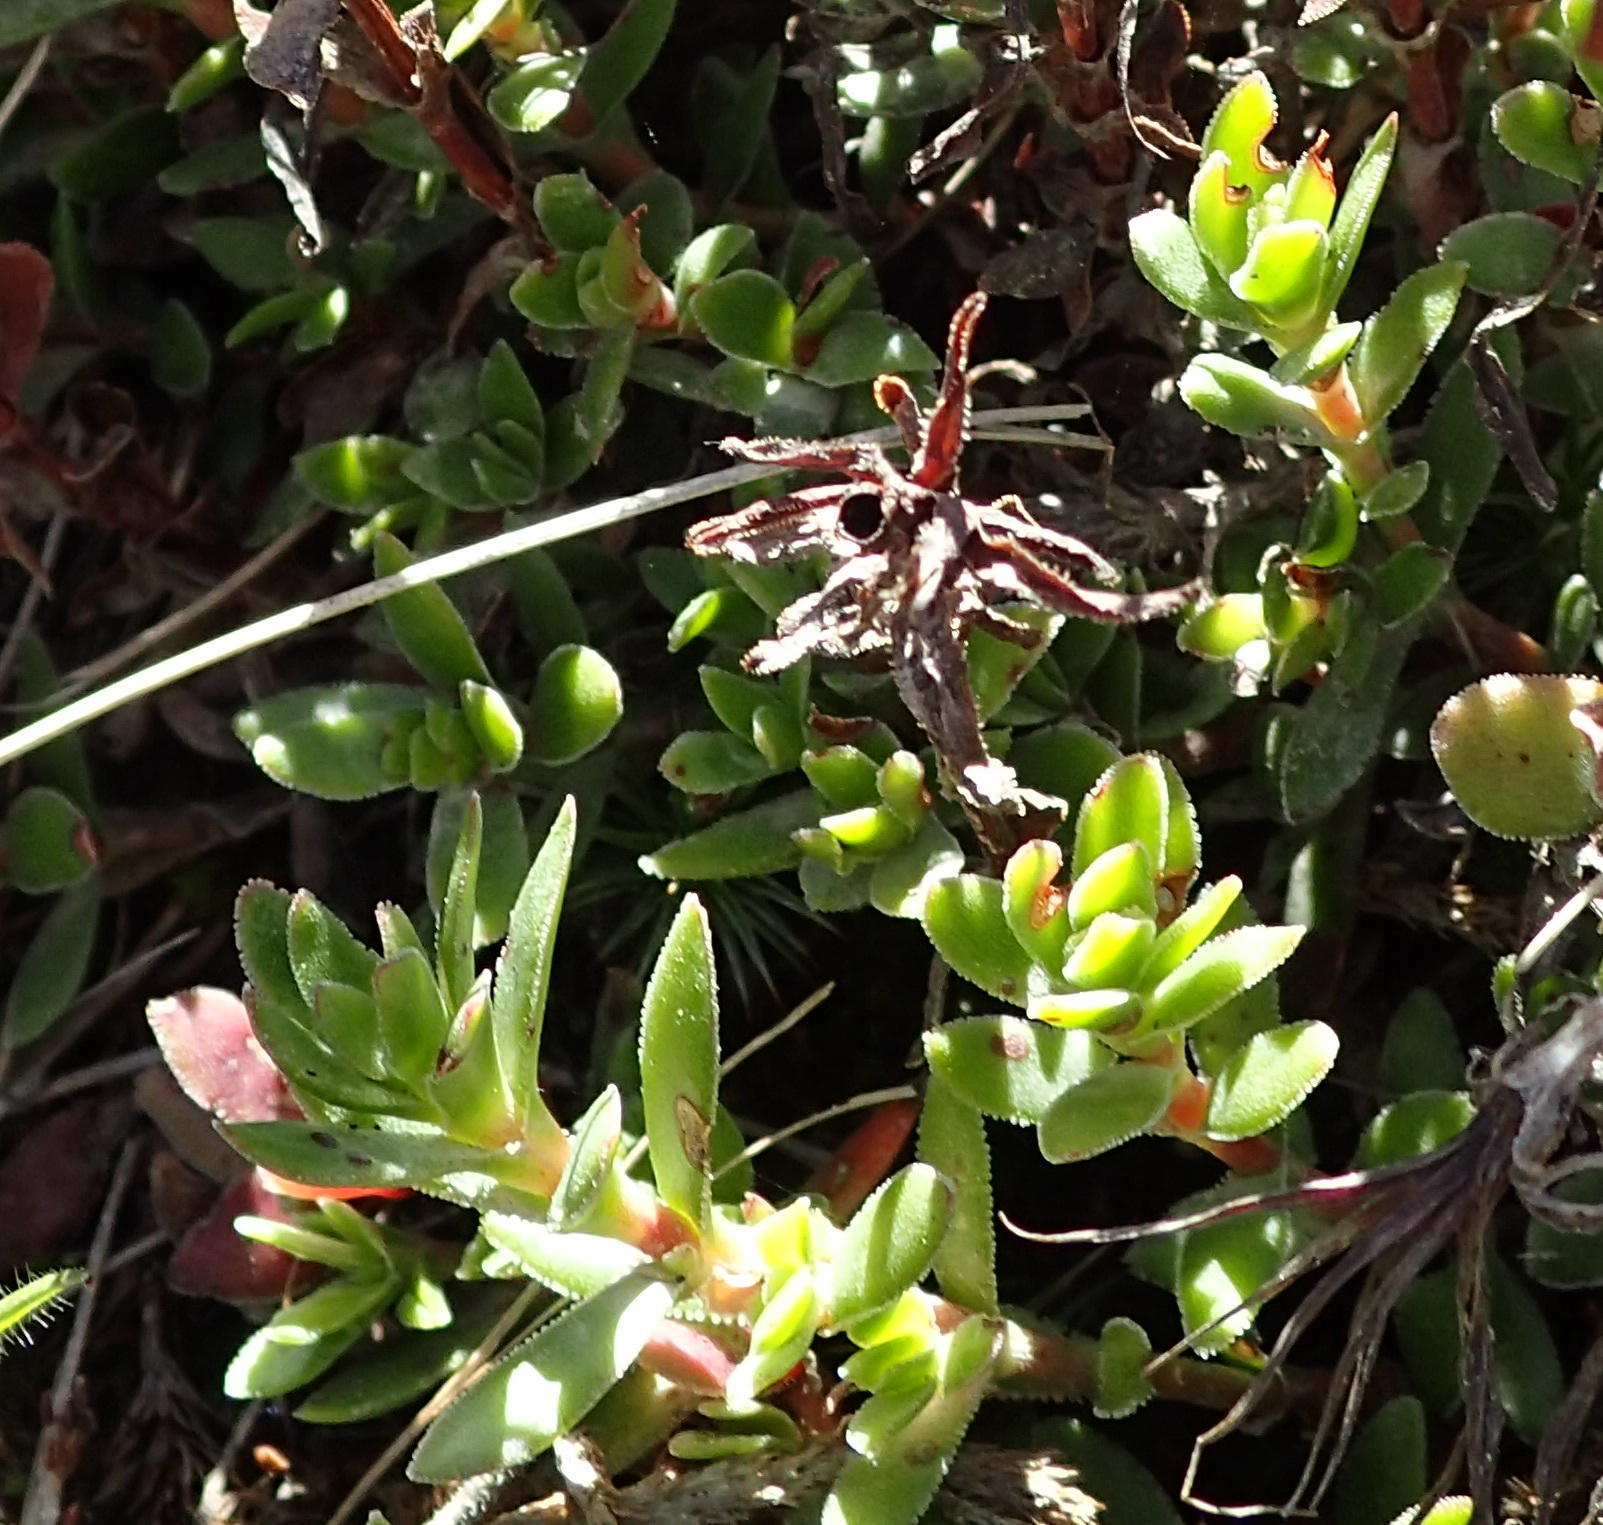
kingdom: Plantae
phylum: Tracheophyta
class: Magnoliopsida
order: Saxifragales
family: Crassulaceae
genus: Crassula
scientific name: Crassula obtusa
